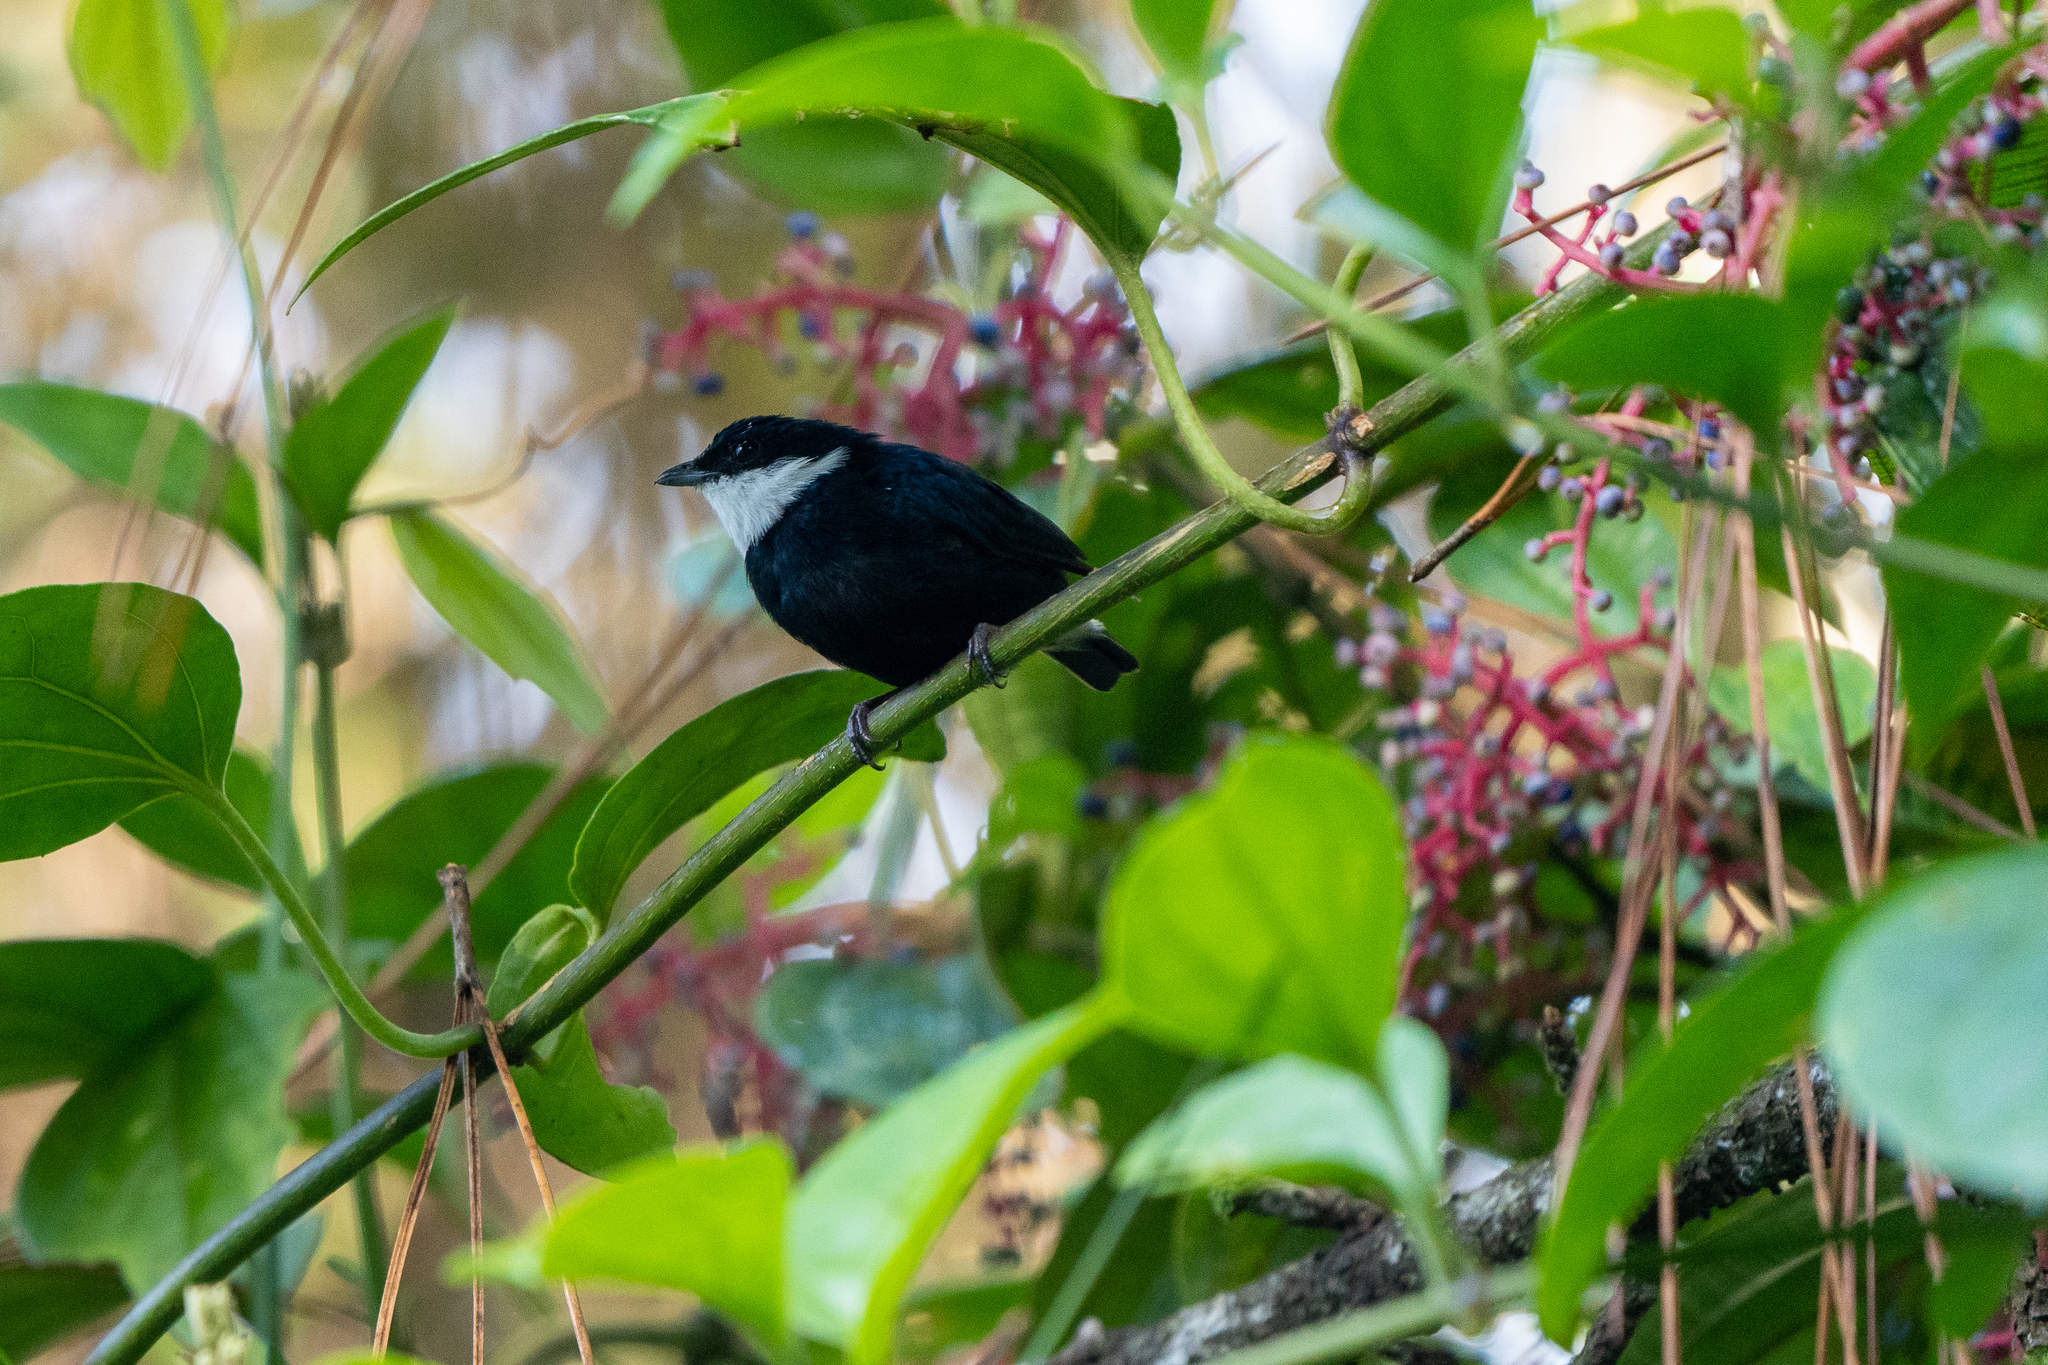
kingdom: Animalia
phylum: Chordata
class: Aves
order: Passeriformes
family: Pipridae
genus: Corapipo
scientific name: Corapipo altera
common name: White-ruffed manakin
